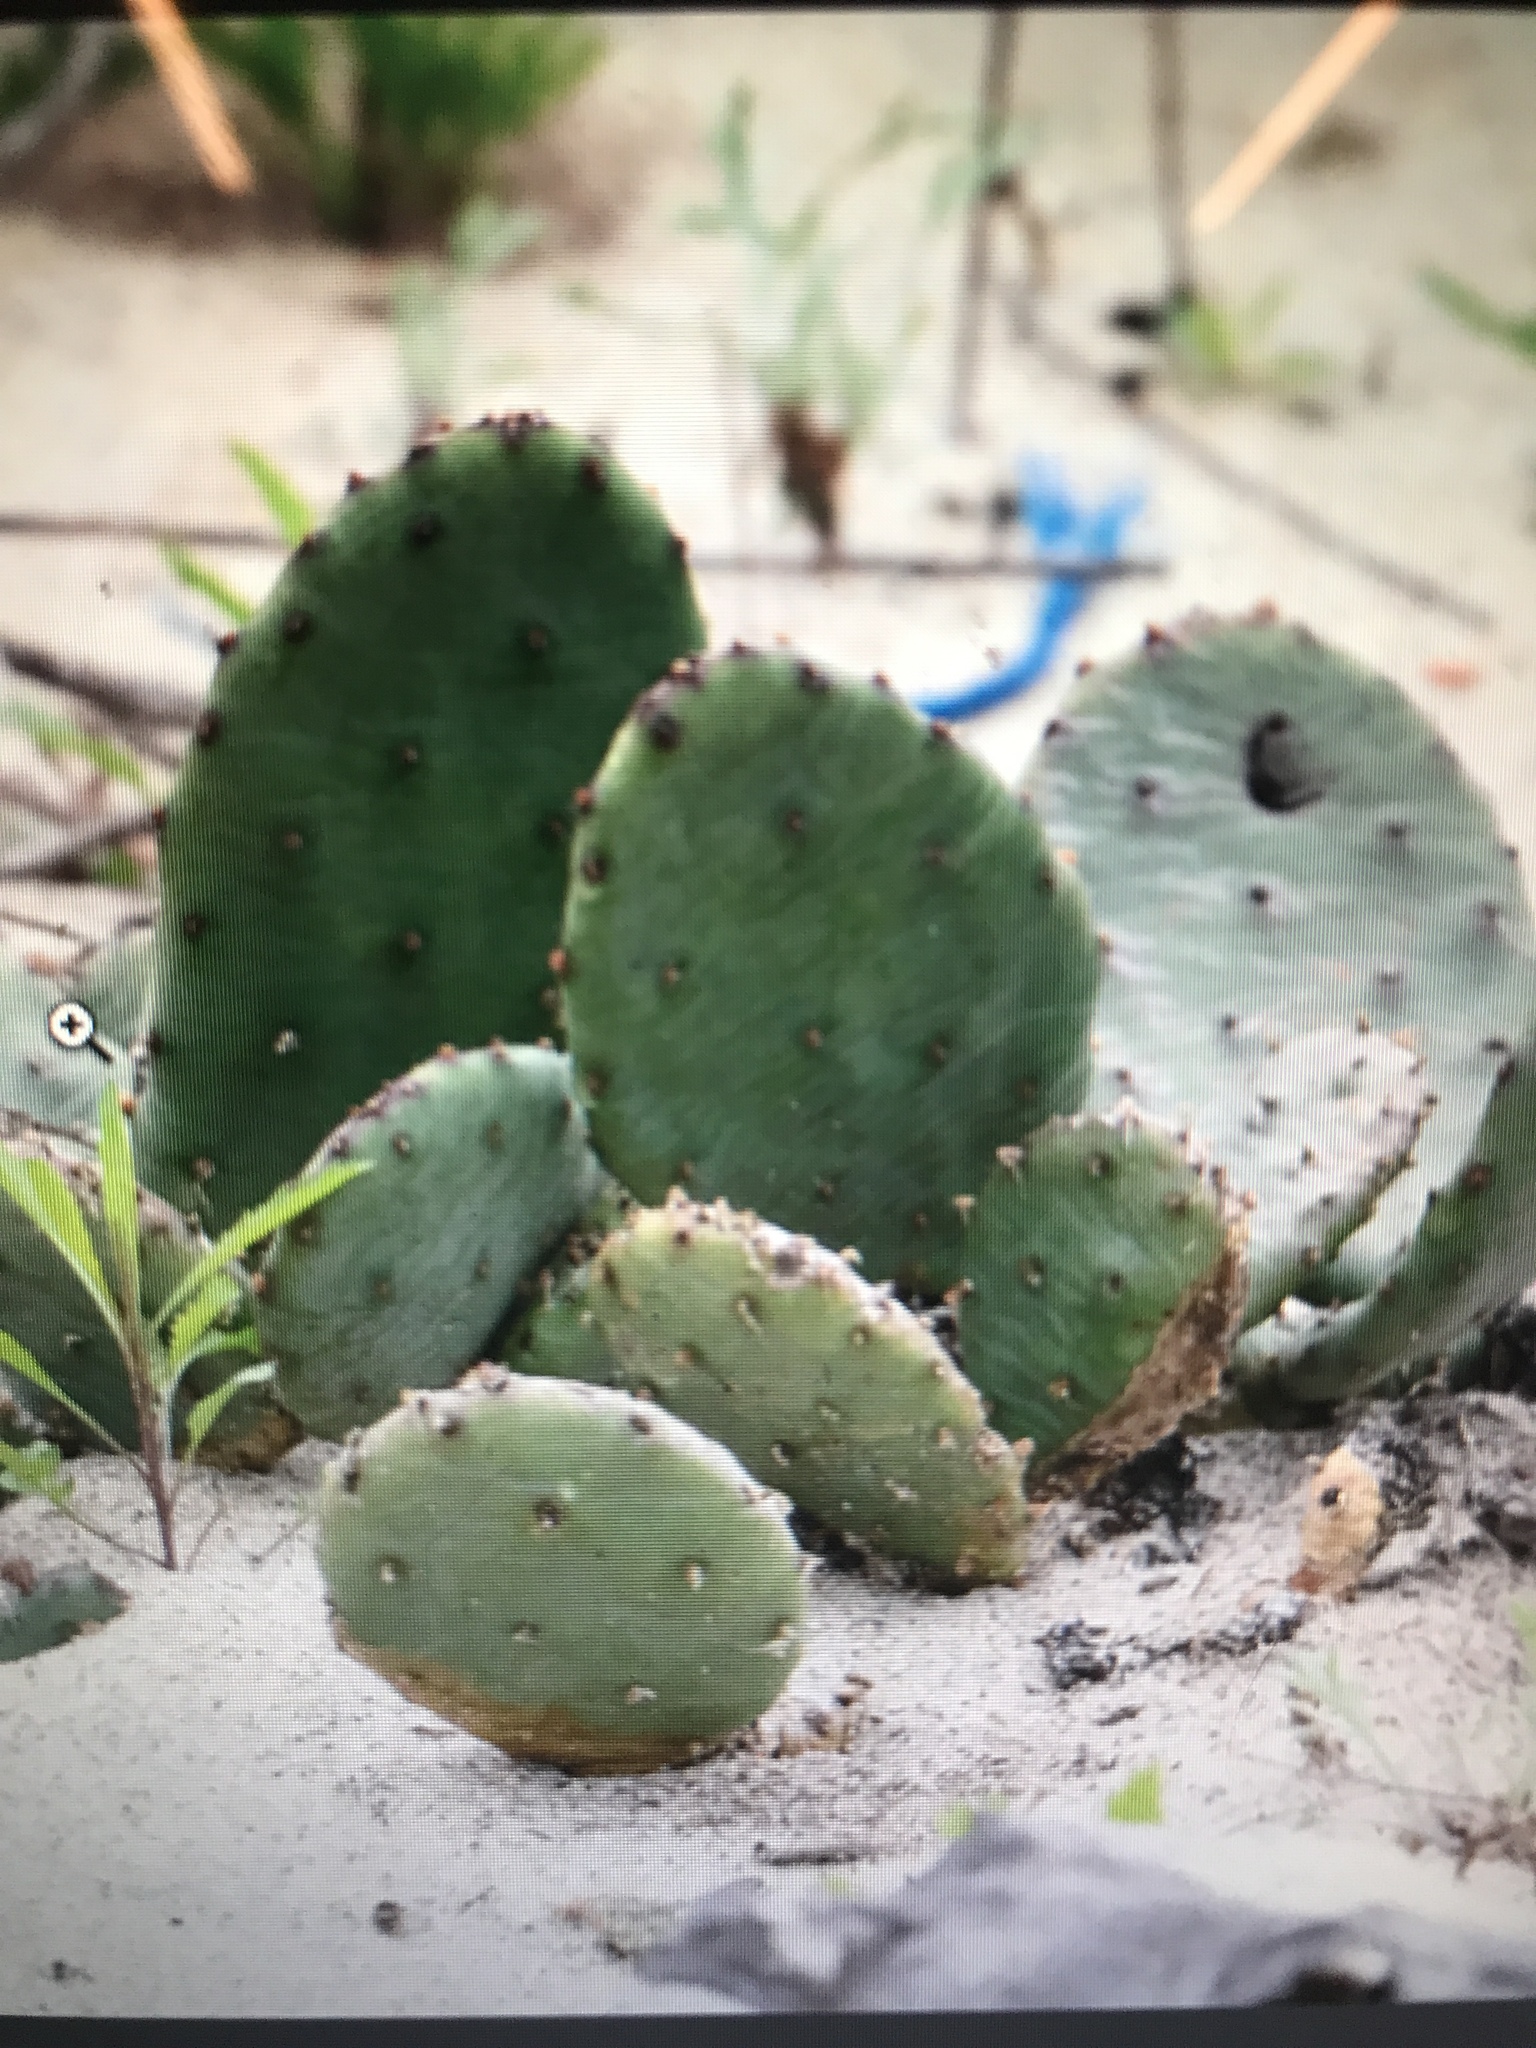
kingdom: Plantae
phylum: Tracheophyta
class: Magnoliopsida
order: Caryophyllales
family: Cactaceae
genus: Opuntia
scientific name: Opuntia humifusa
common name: Eastern prickly-pear
